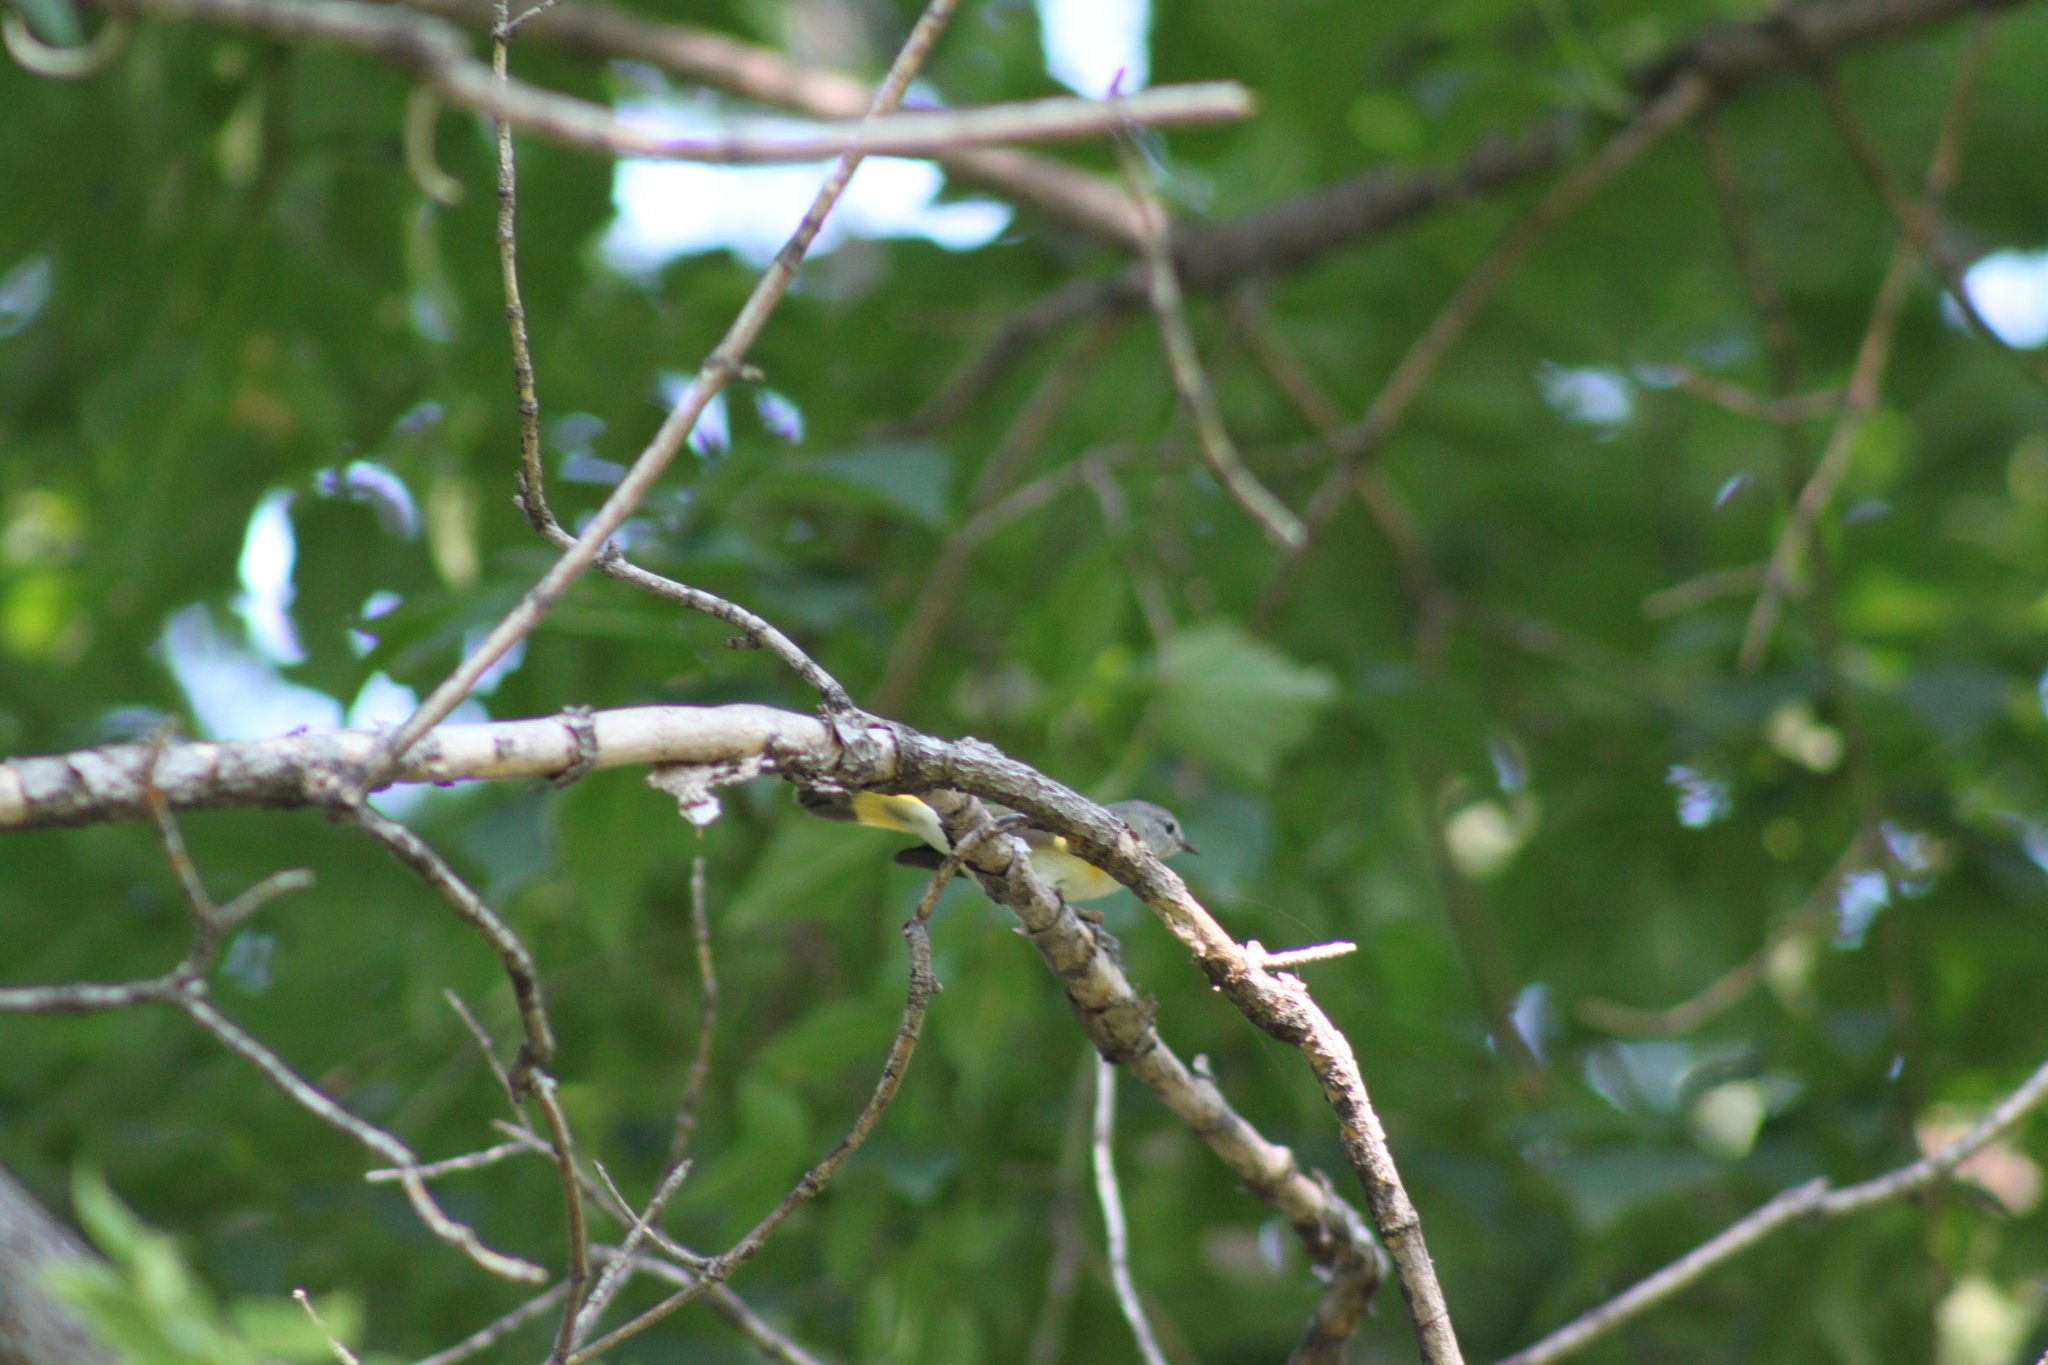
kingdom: Animalia
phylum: Chordata
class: Aves
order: Passeriformes
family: Parulidae
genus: Setophaga
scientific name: Setophaga ruticilla
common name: American redstart
